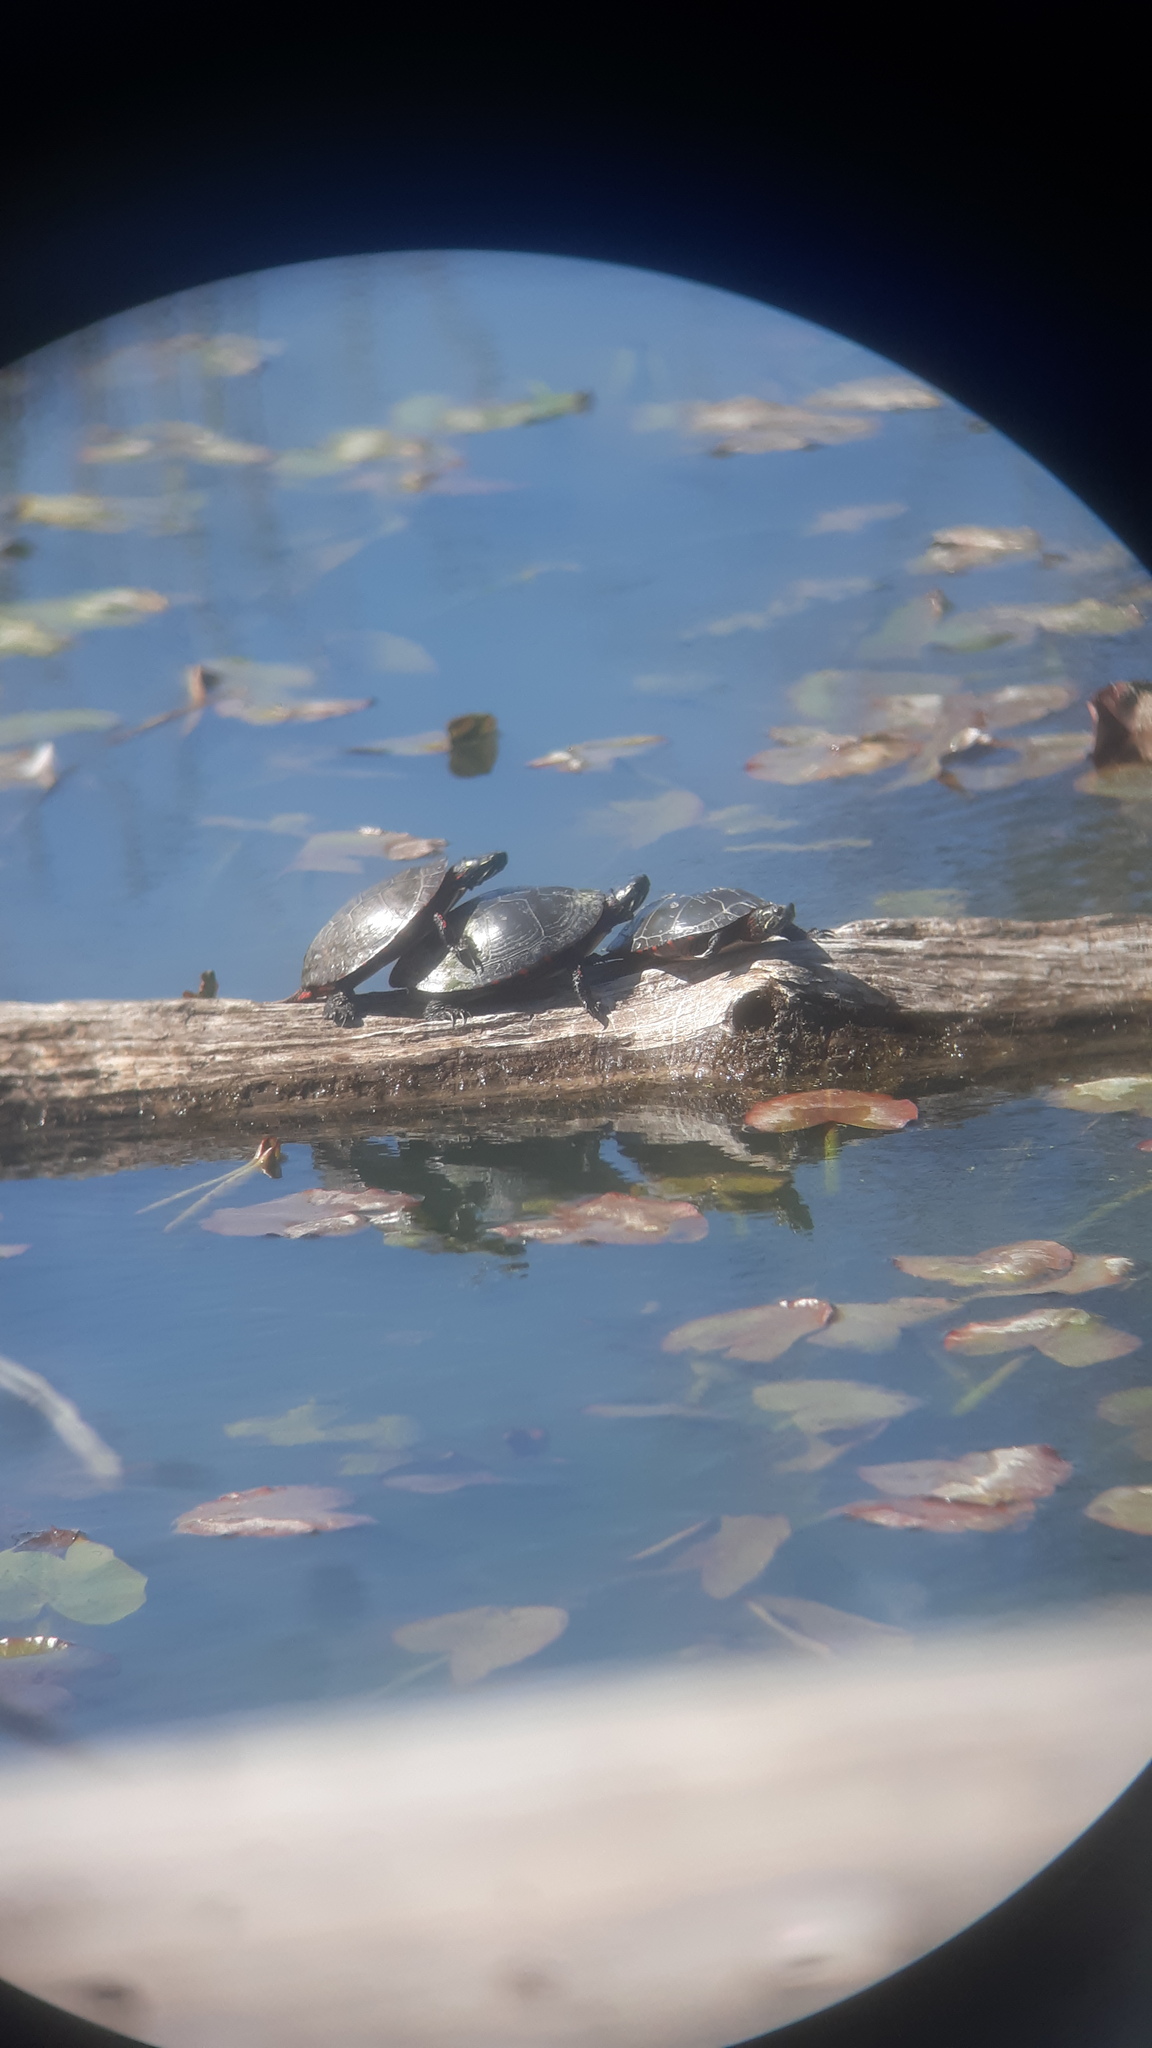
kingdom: Animalia
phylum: Chordata
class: Testudines
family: Emydidae
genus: Chrysemys
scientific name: Chrysemys picta
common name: Painted turtle
